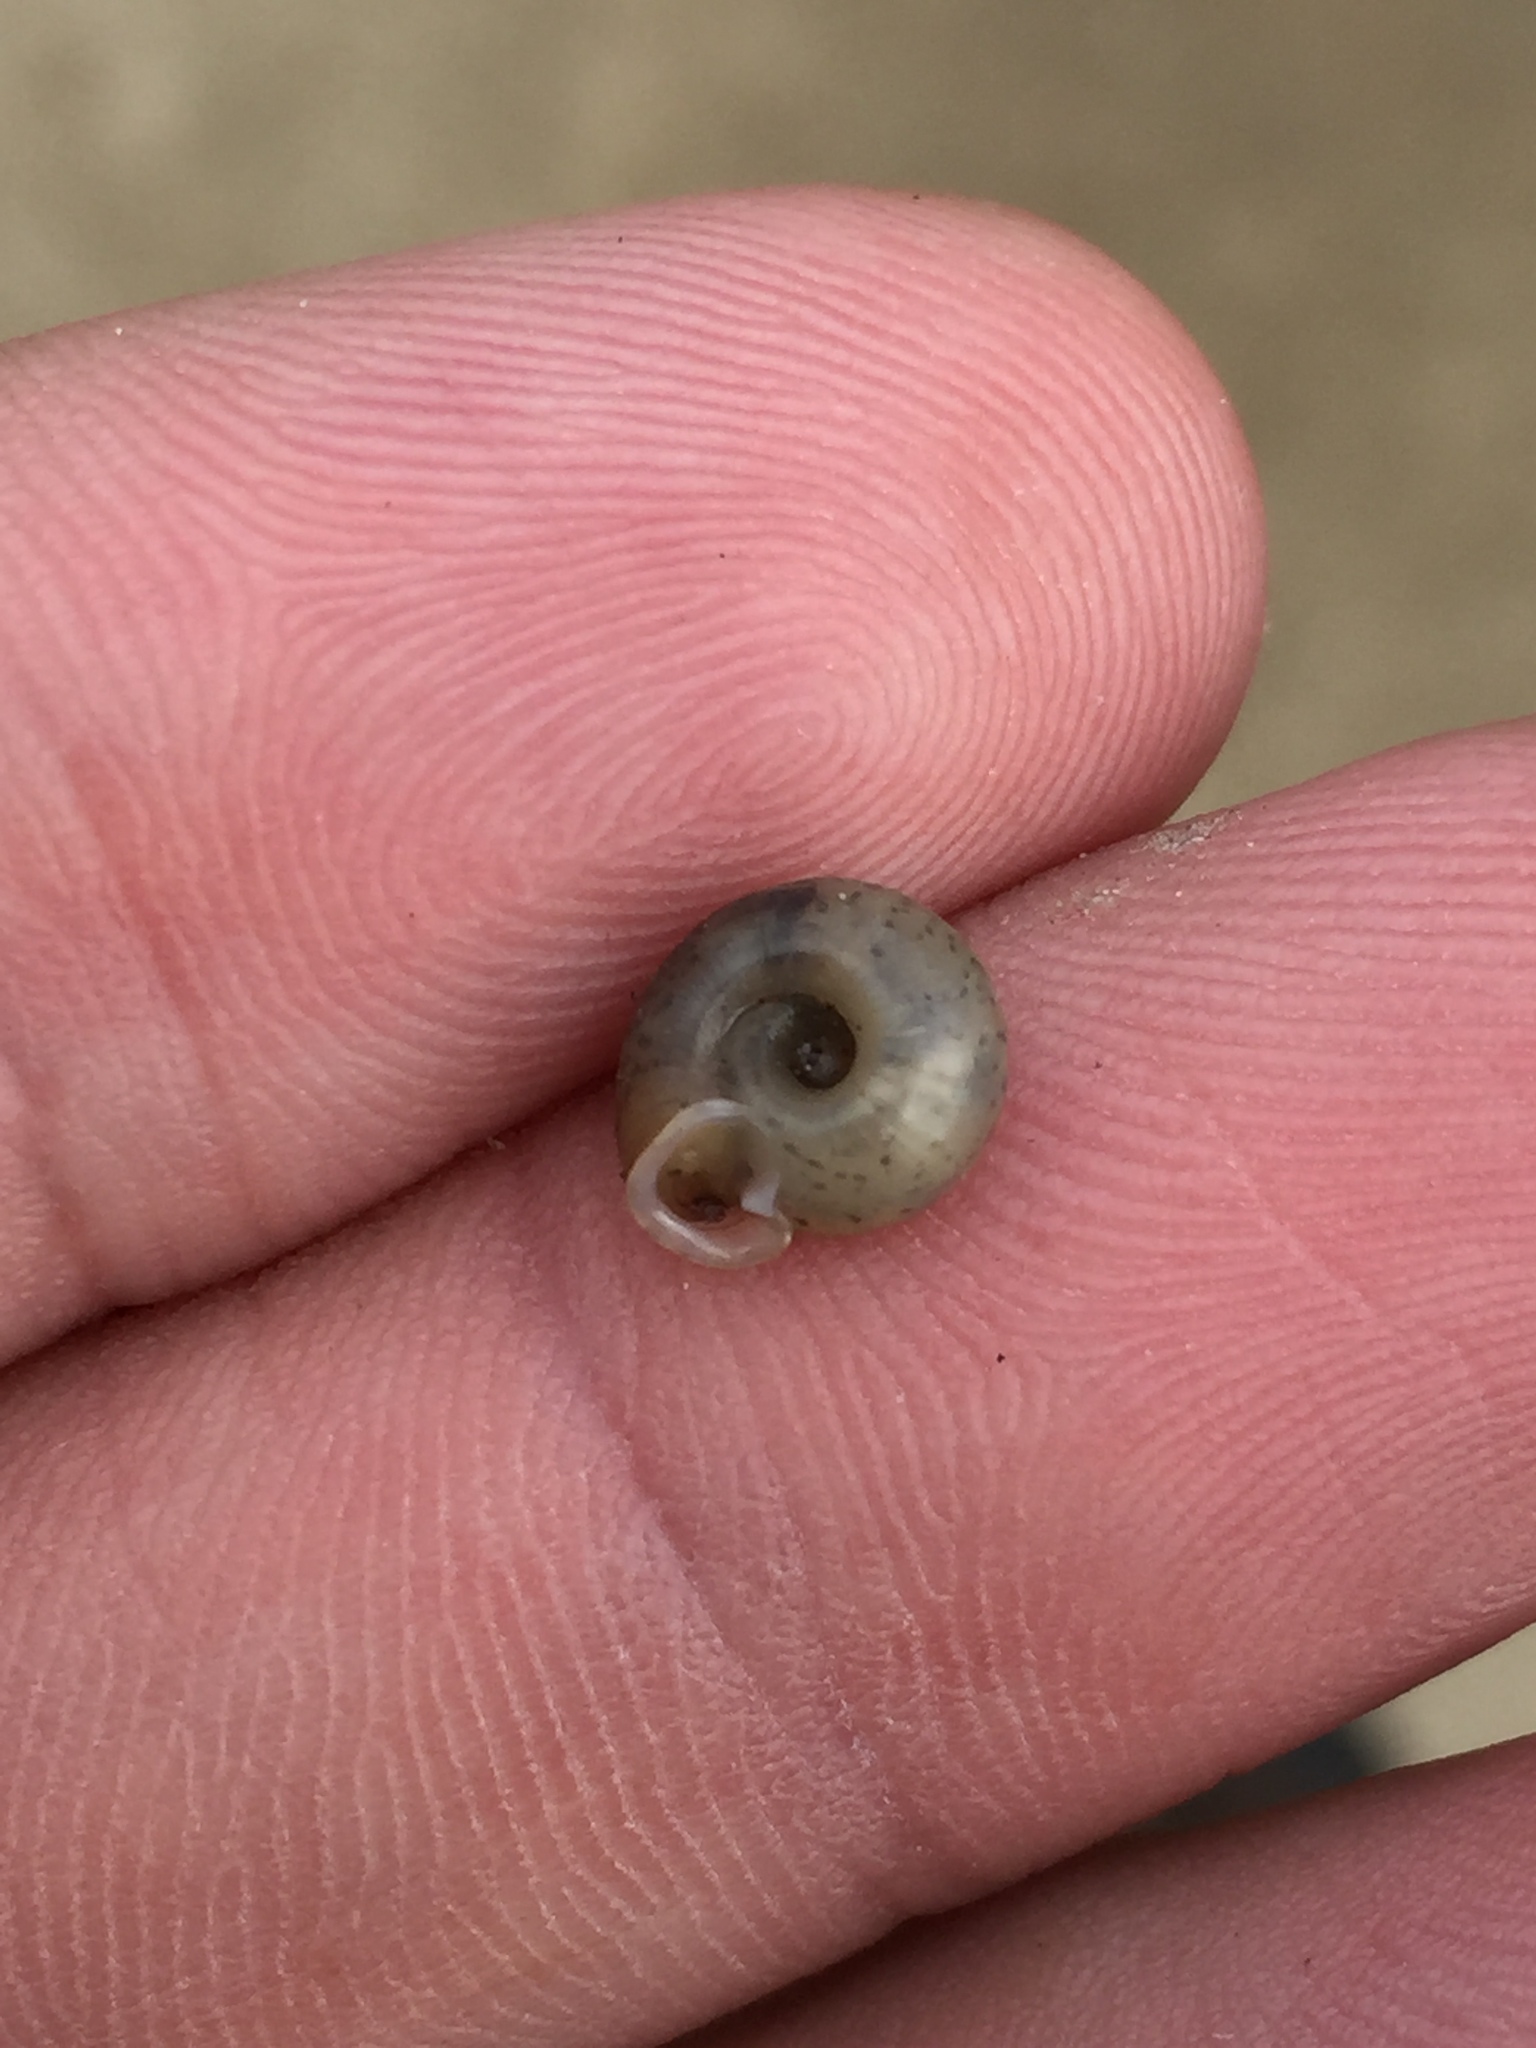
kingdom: Animalia
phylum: Mollusca
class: Gastropoda
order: Stylommatophora
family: Polygyridae
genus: Polygyra
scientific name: Polygyra cereolus
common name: Southern flatcone snail
